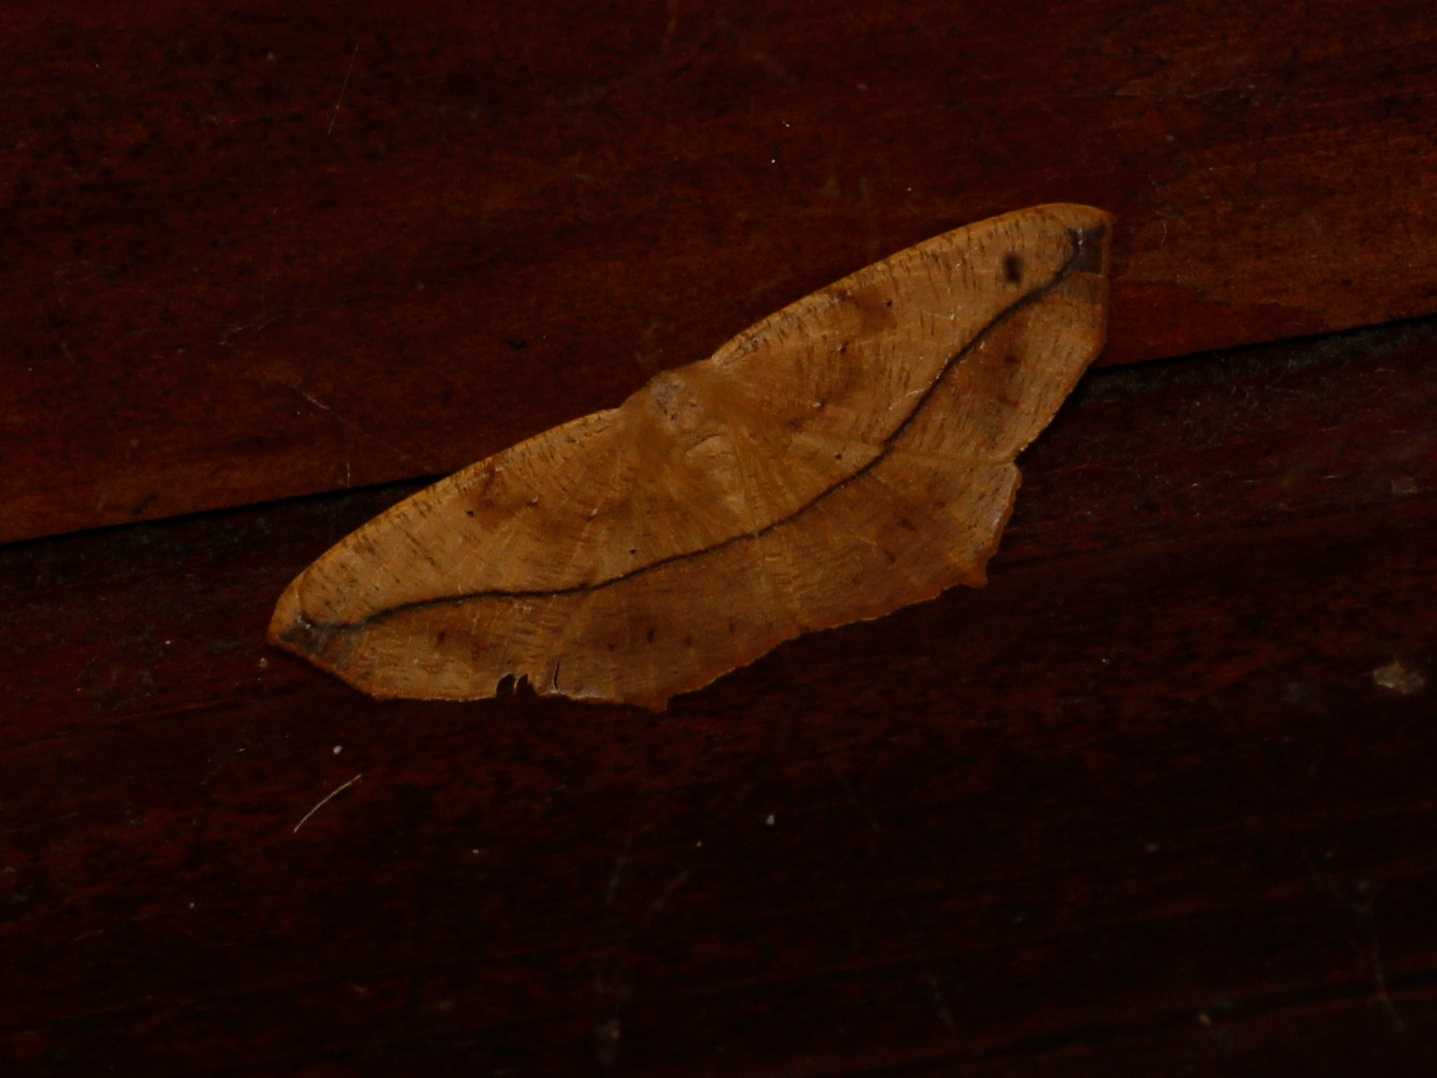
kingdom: Animalia
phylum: Arthropoda
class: Insecta
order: Lepidoptera
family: Geometridae
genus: Prochoerodes
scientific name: Prochoerodes lineola
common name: Large maple spanworm
